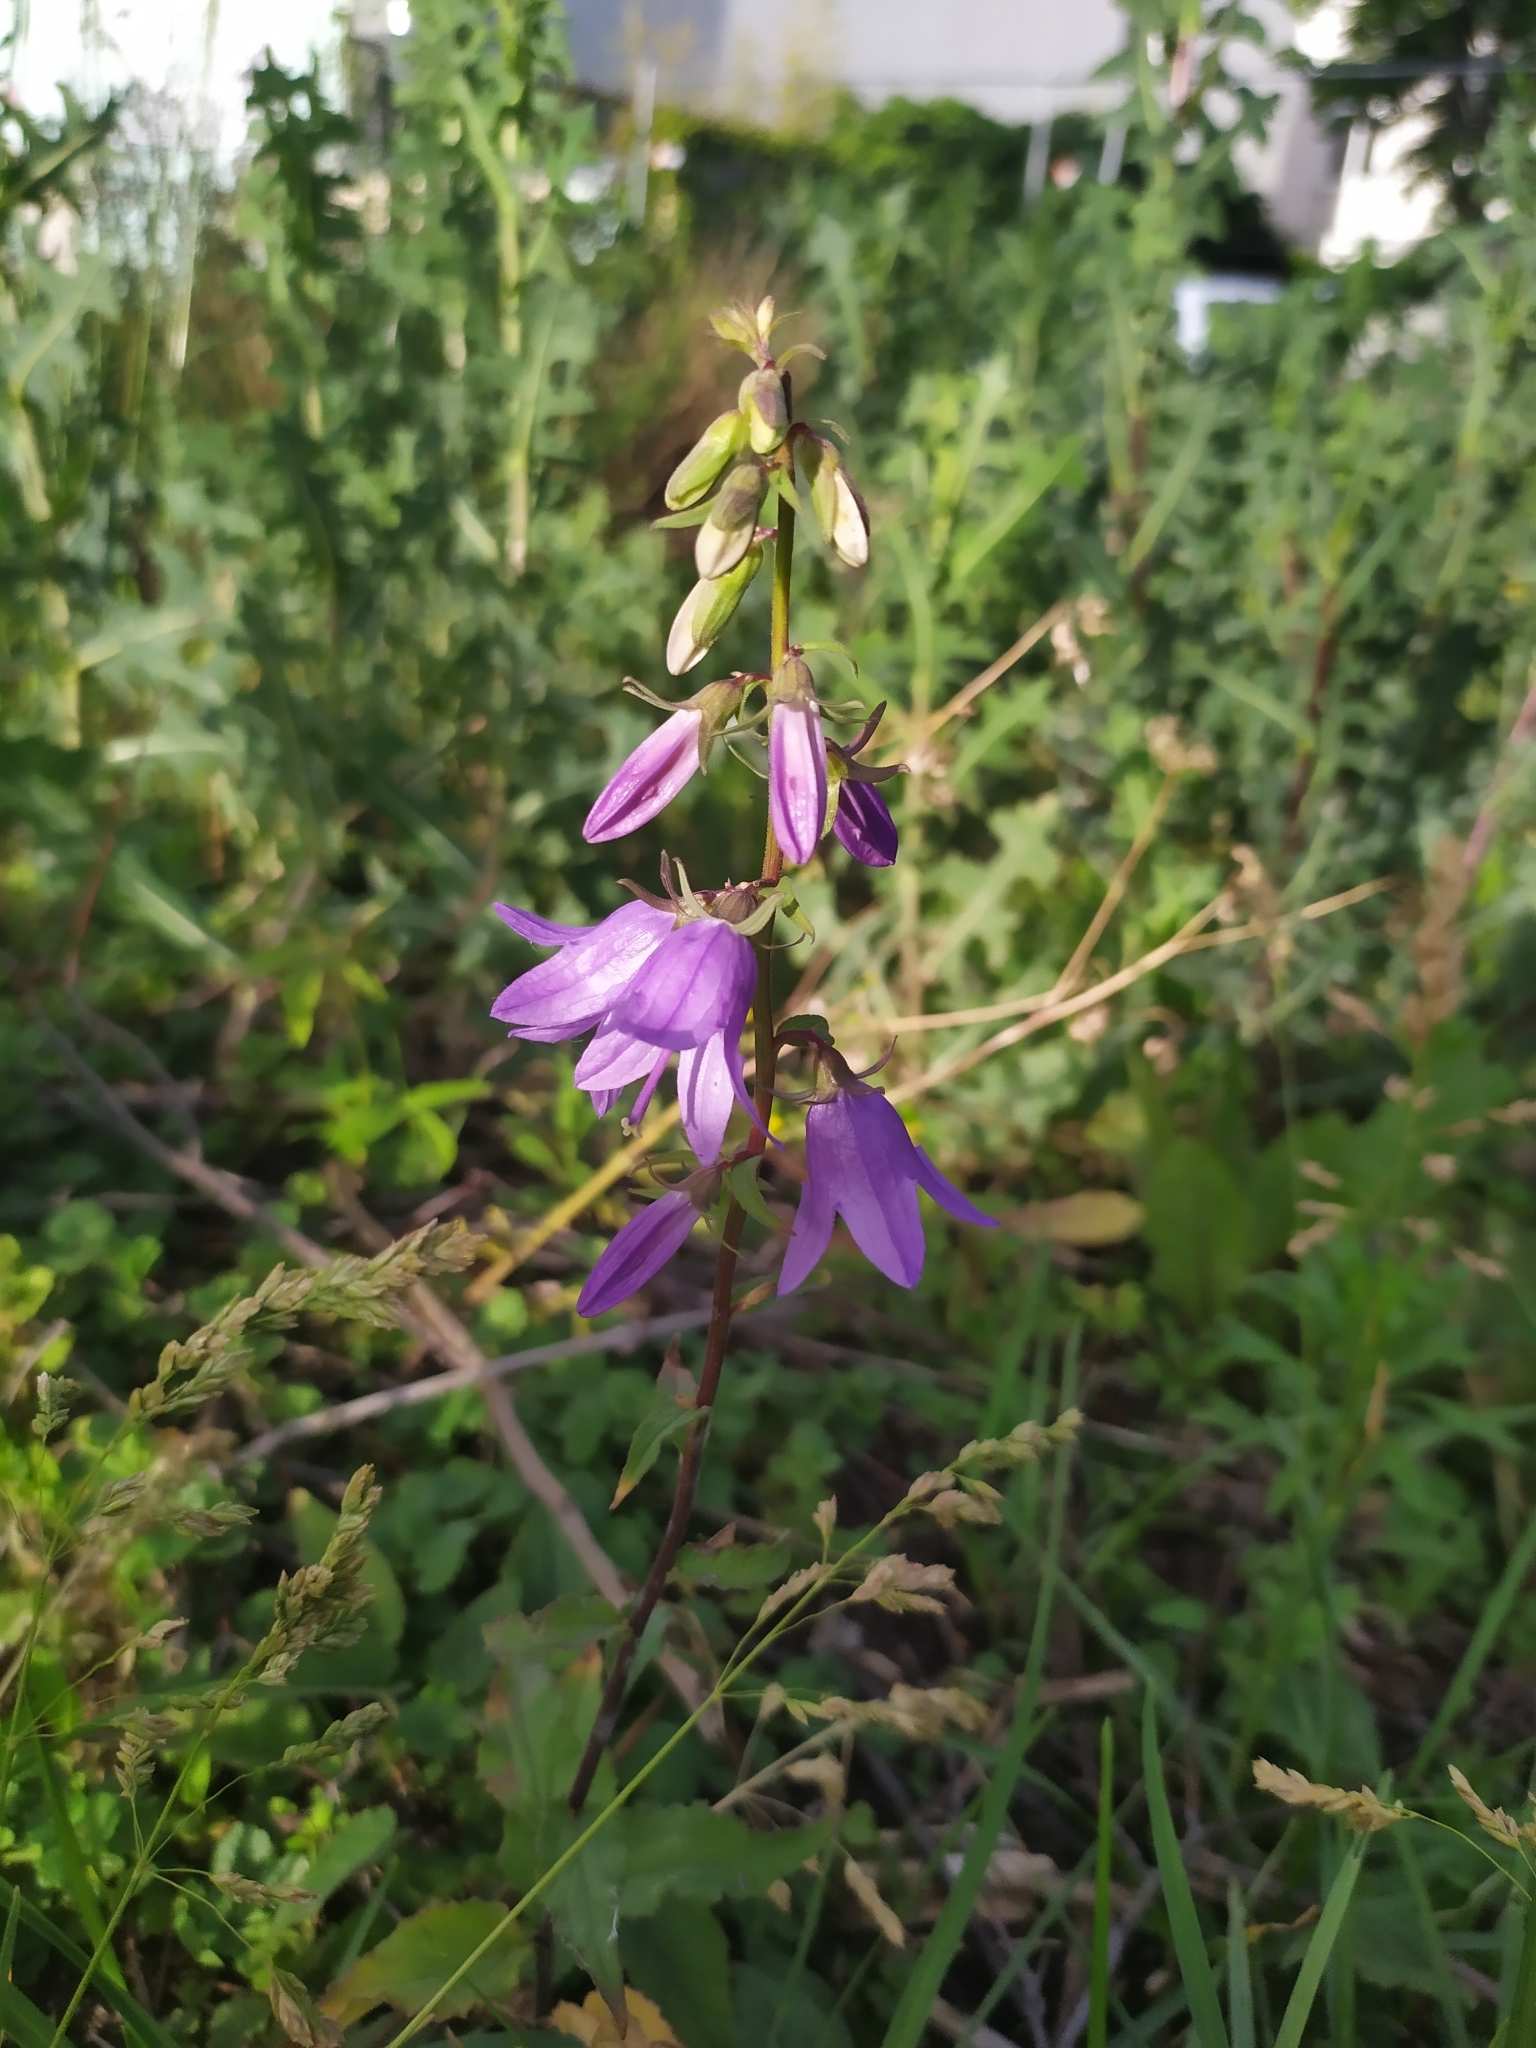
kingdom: Plantae
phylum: Tracheophyta
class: Magnoliopsida
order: Asterales
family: Campanulaceae
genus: Campanula
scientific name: Campanula rapunculoides
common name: Creeping bellflower
